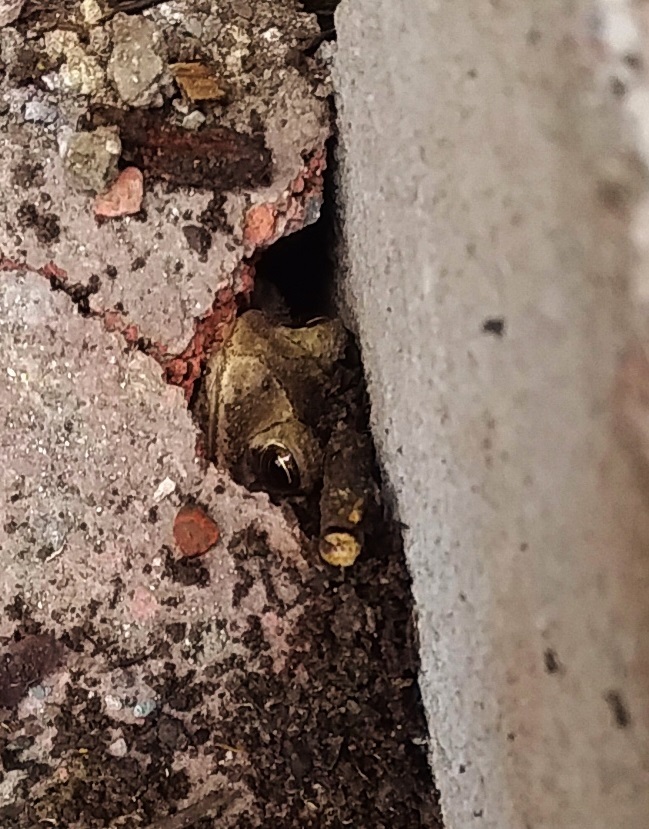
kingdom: Animalia
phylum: Chordata
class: Amphibia
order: Anura
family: Bufonidae
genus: Incilius
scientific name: Incilius nebulifer
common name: Gulf coast toad
